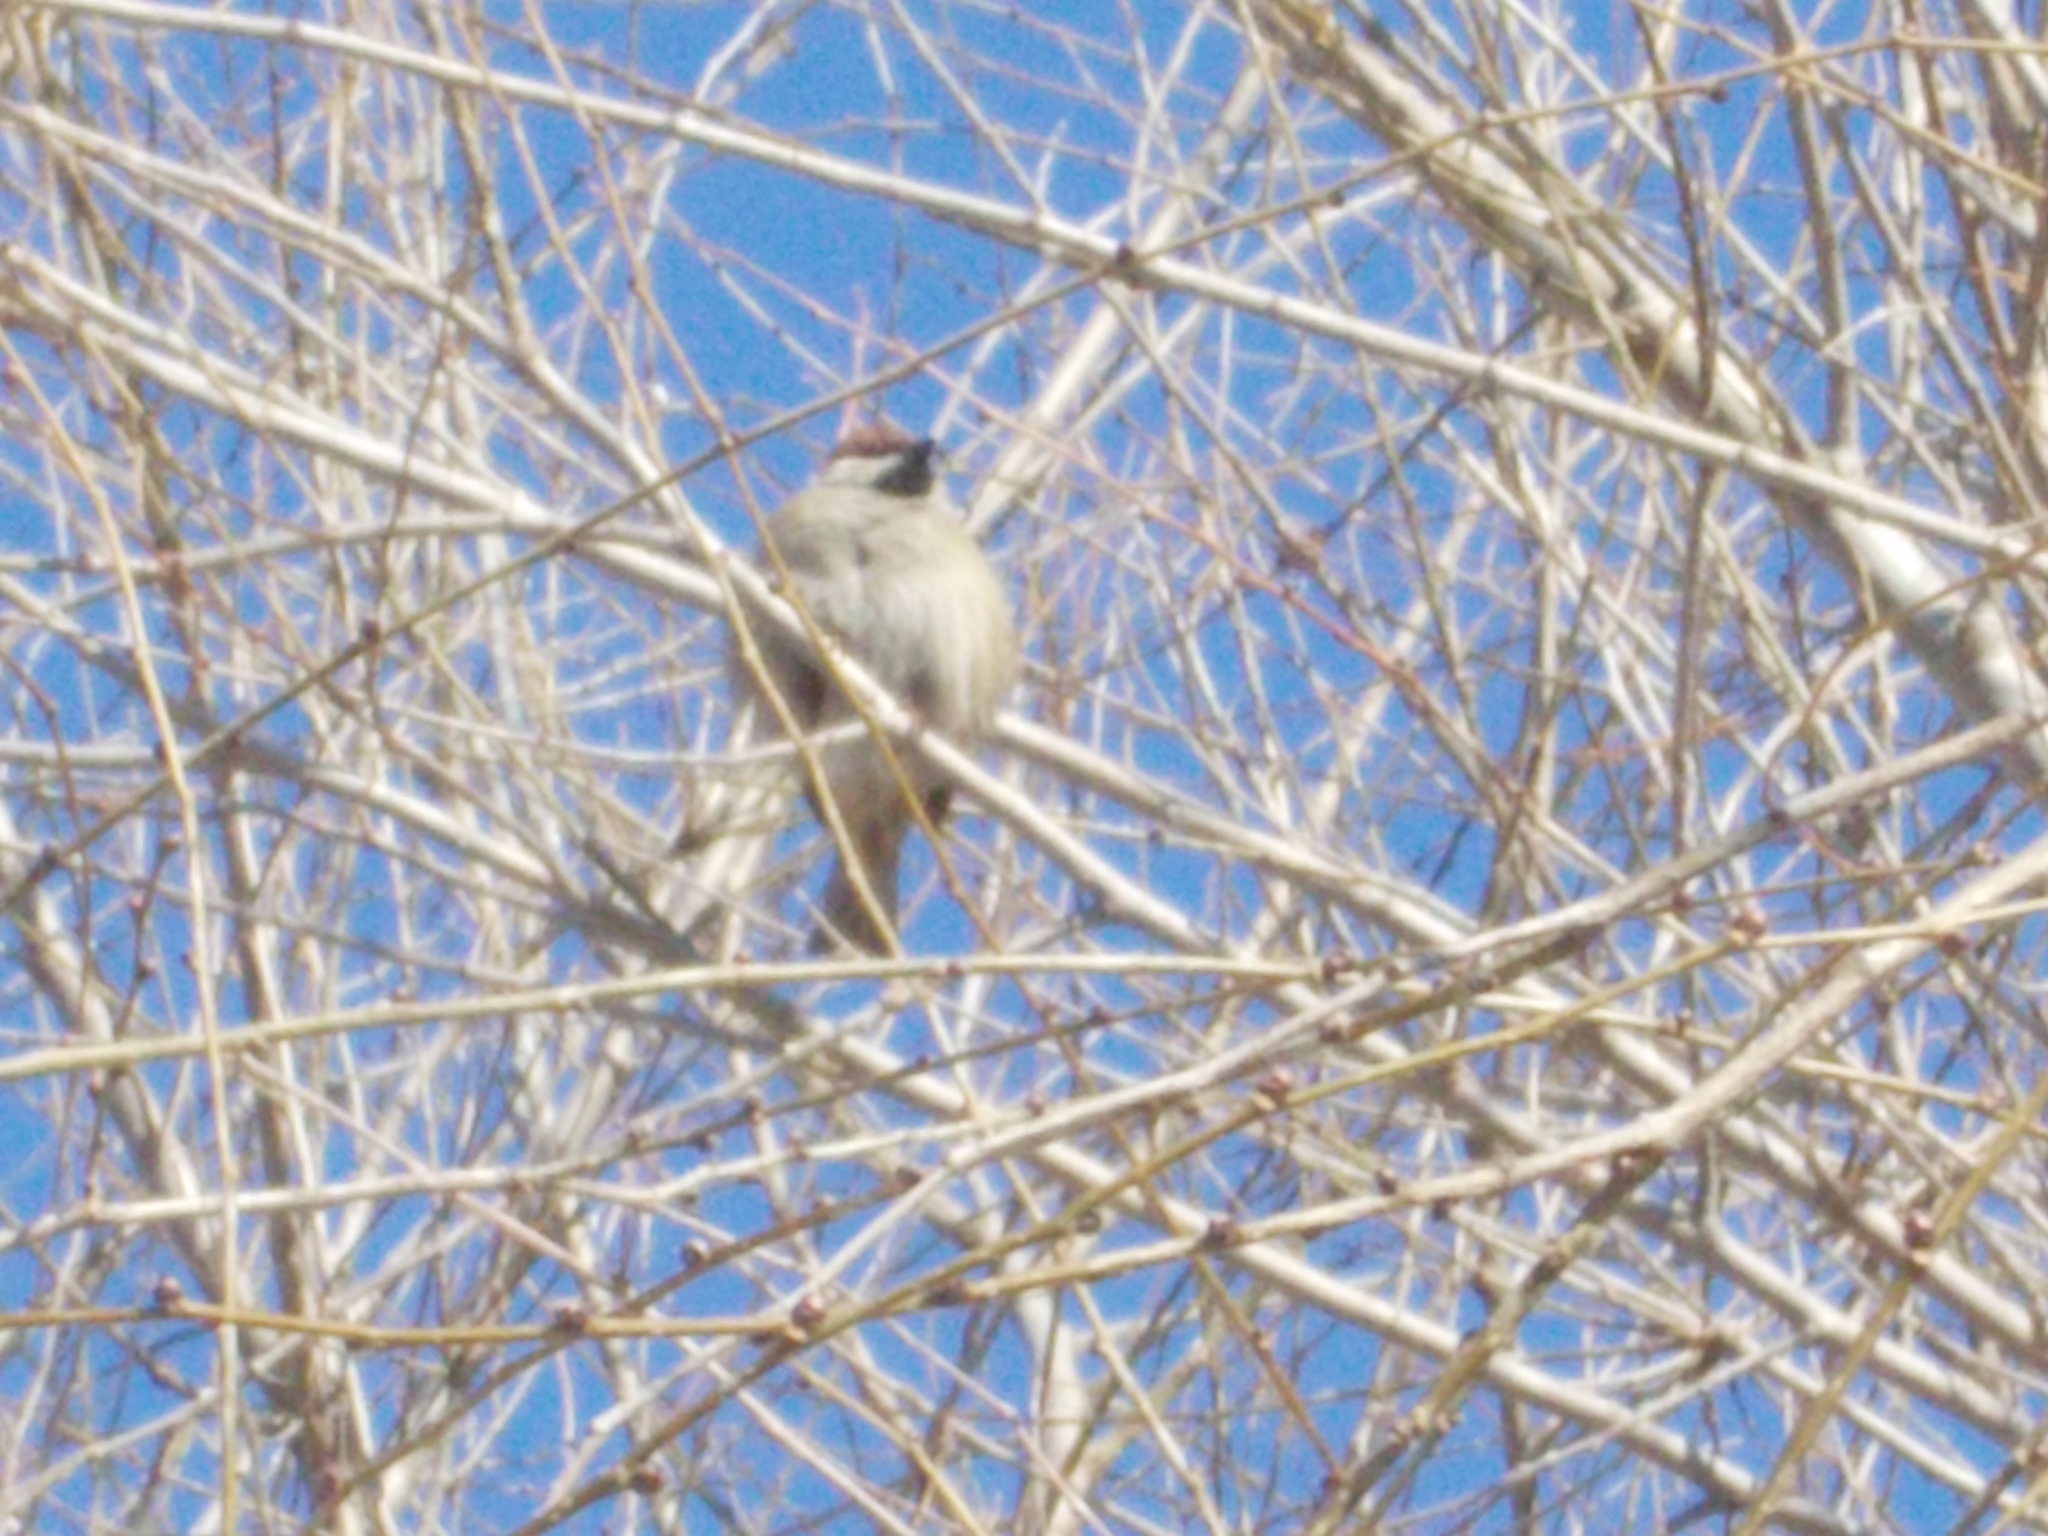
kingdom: Animalia
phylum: Chordata
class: Aves
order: Passeriformes
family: Passeridae
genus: Passer
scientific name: Passer domesticus
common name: House sparrow
